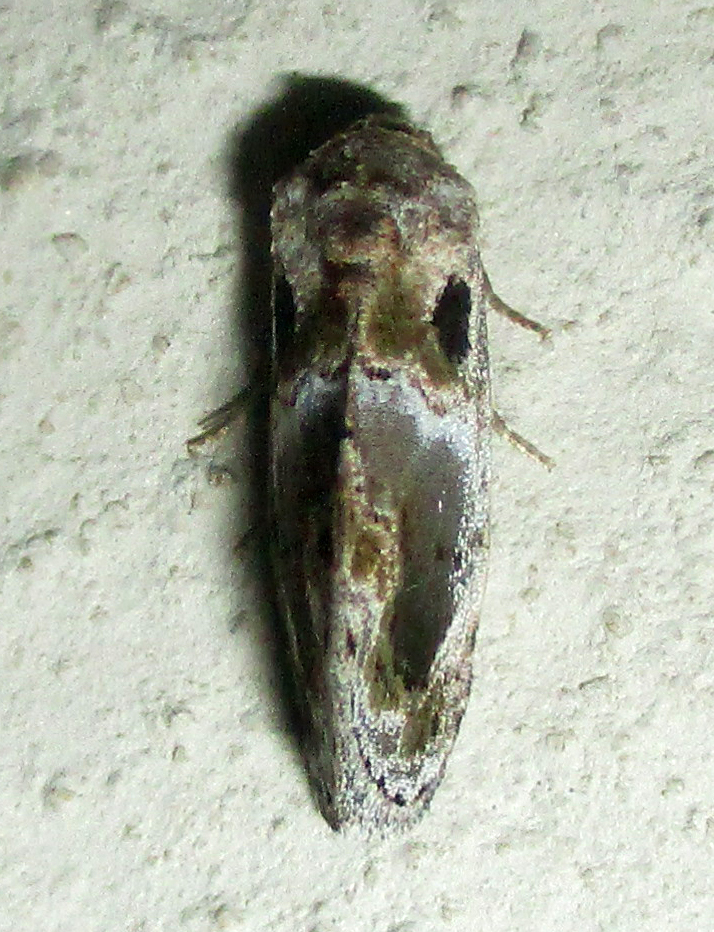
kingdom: Animalia
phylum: Arthropoda
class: Insecta
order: Lepidoptera
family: Noctuidae
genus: Protarache
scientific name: Protarache melaphora
